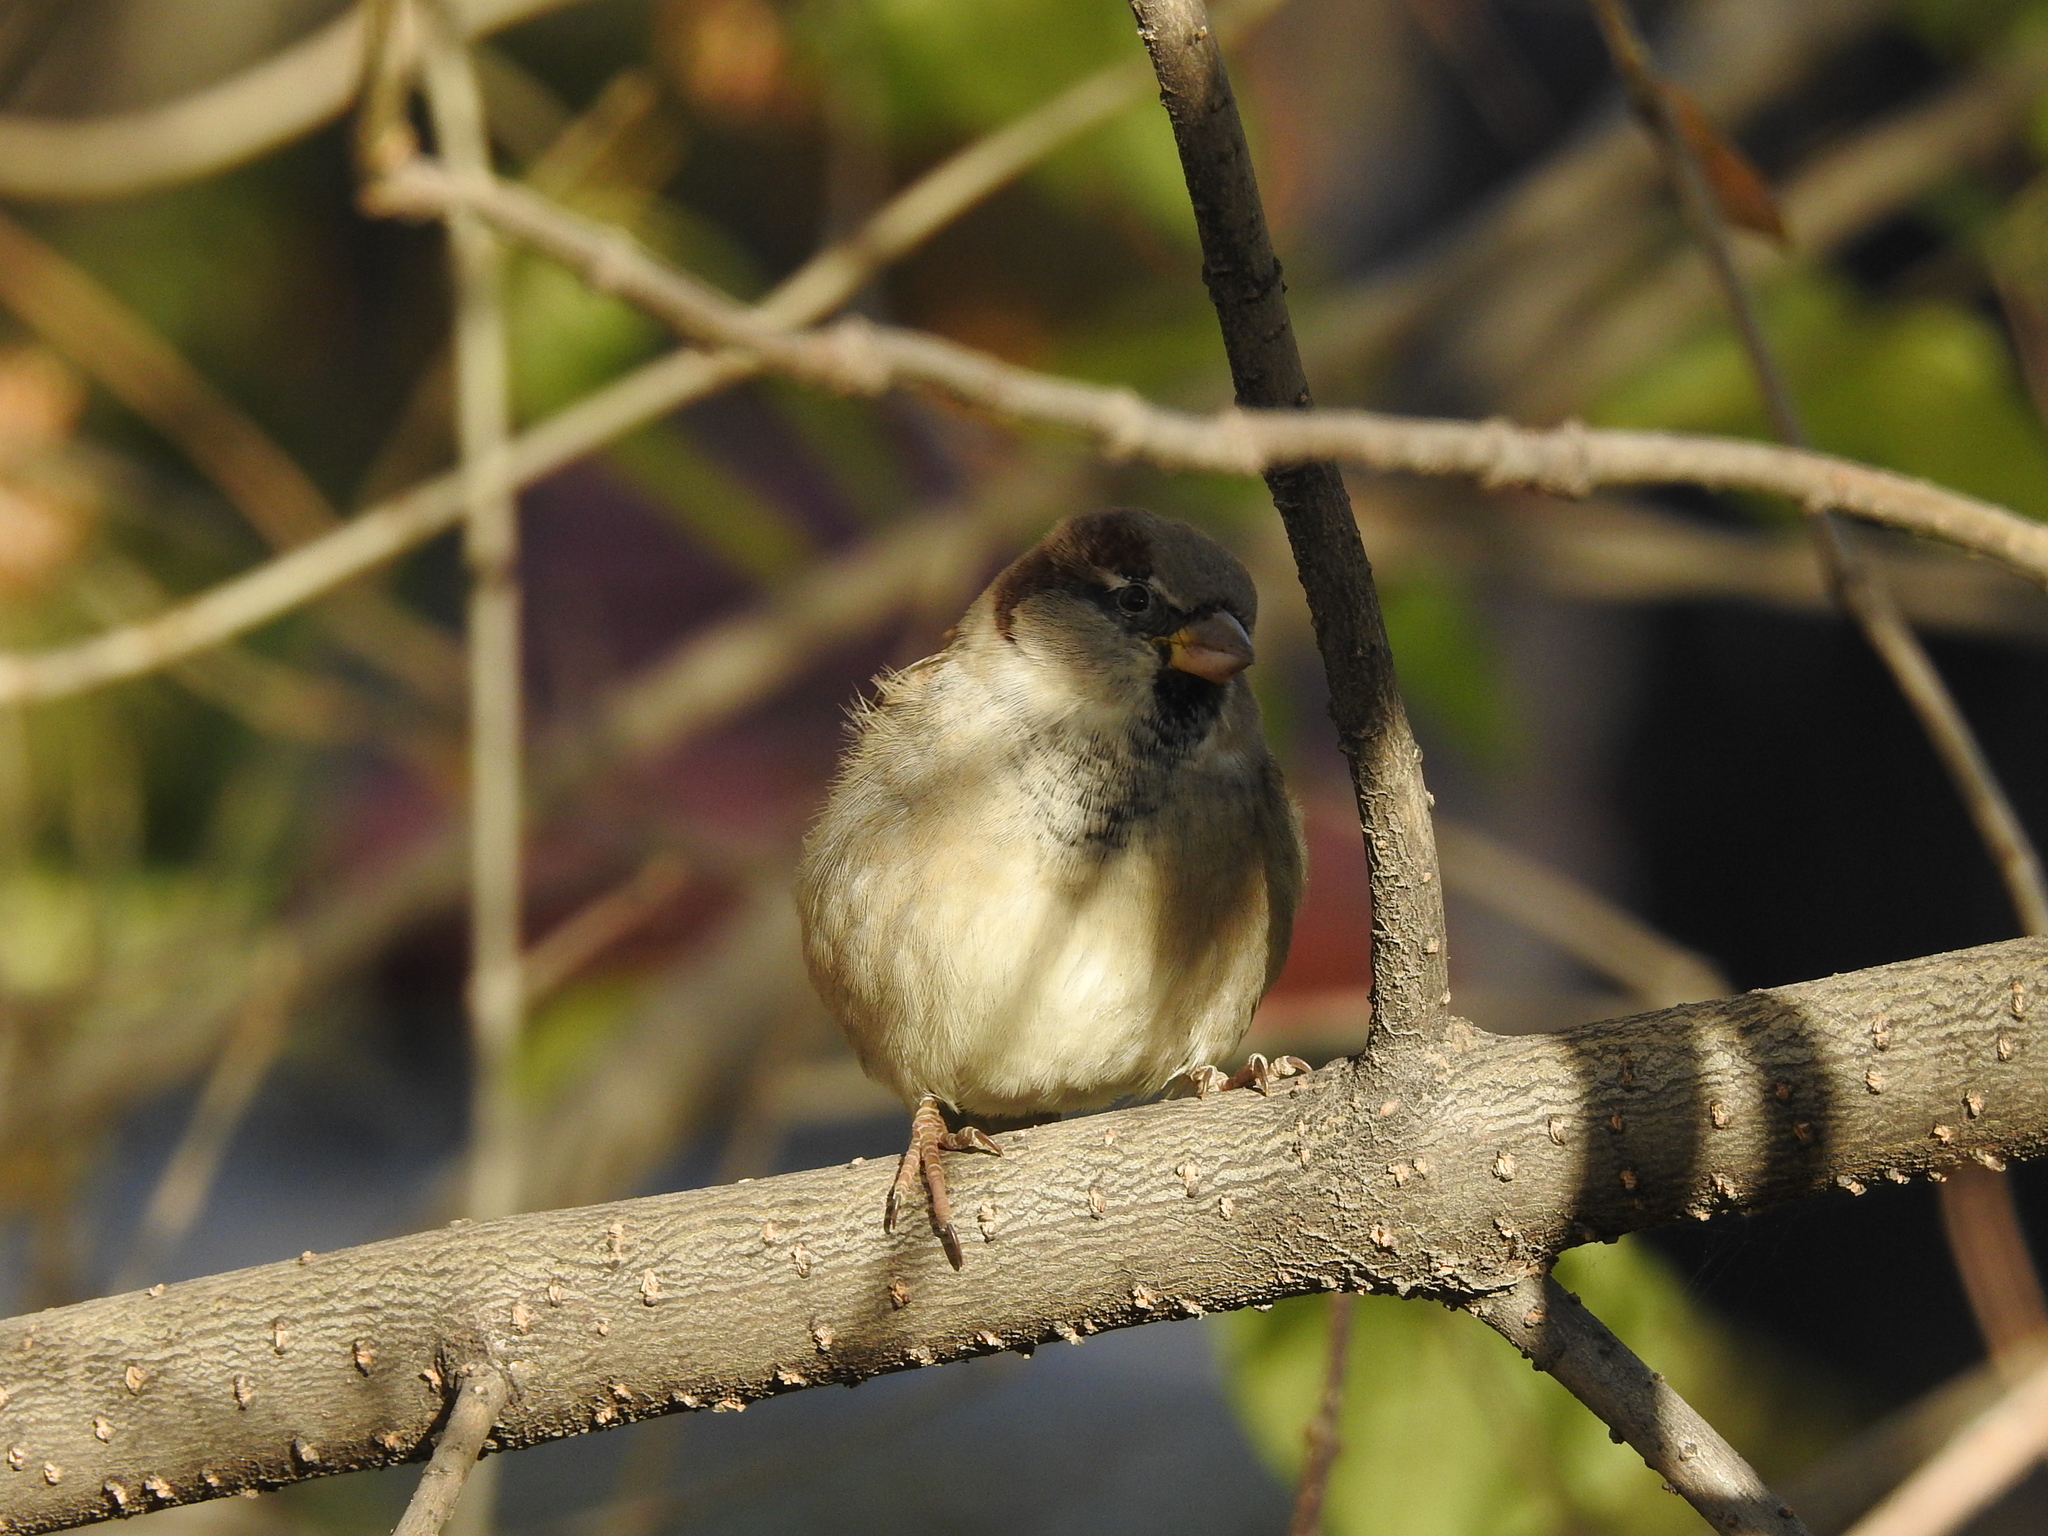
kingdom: Animalia
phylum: Chordata
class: Aves
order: Passeriformes
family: Passeridae
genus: Passer
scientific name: Passer domesticus
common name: House sparrow
